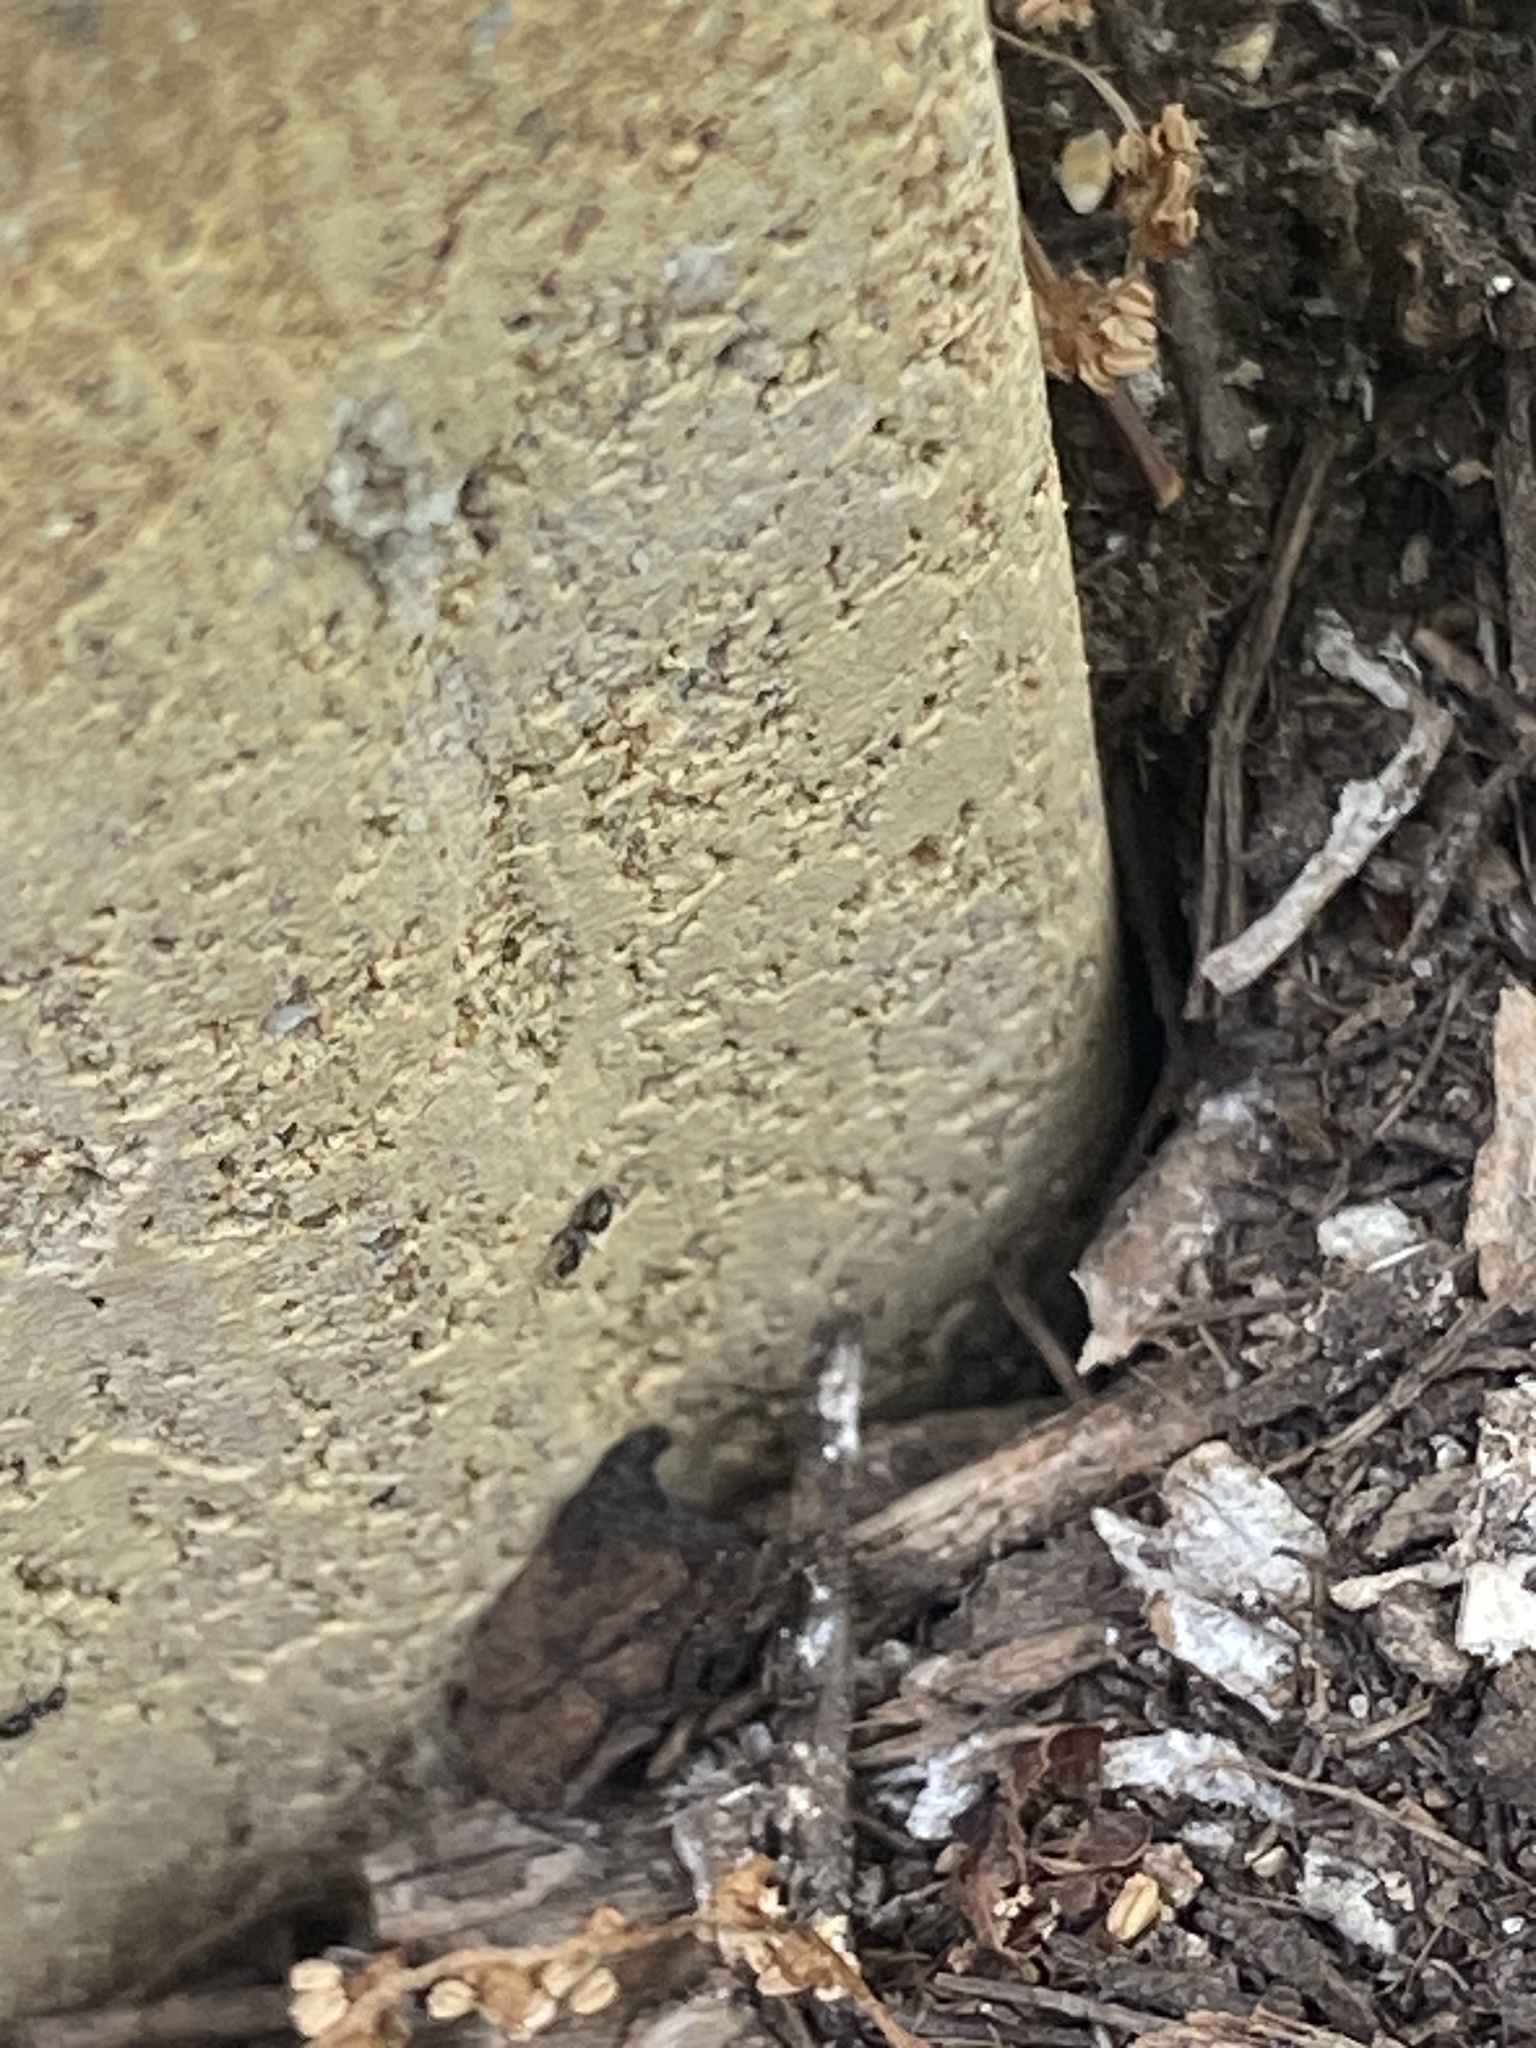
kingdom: Animalia
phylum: Arthropoda
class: Insecta
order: Hymenoptera
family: Formicidae
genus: Brachymyrmex
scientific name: Brachymyrmex patagonicus
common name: Dark rover ant
